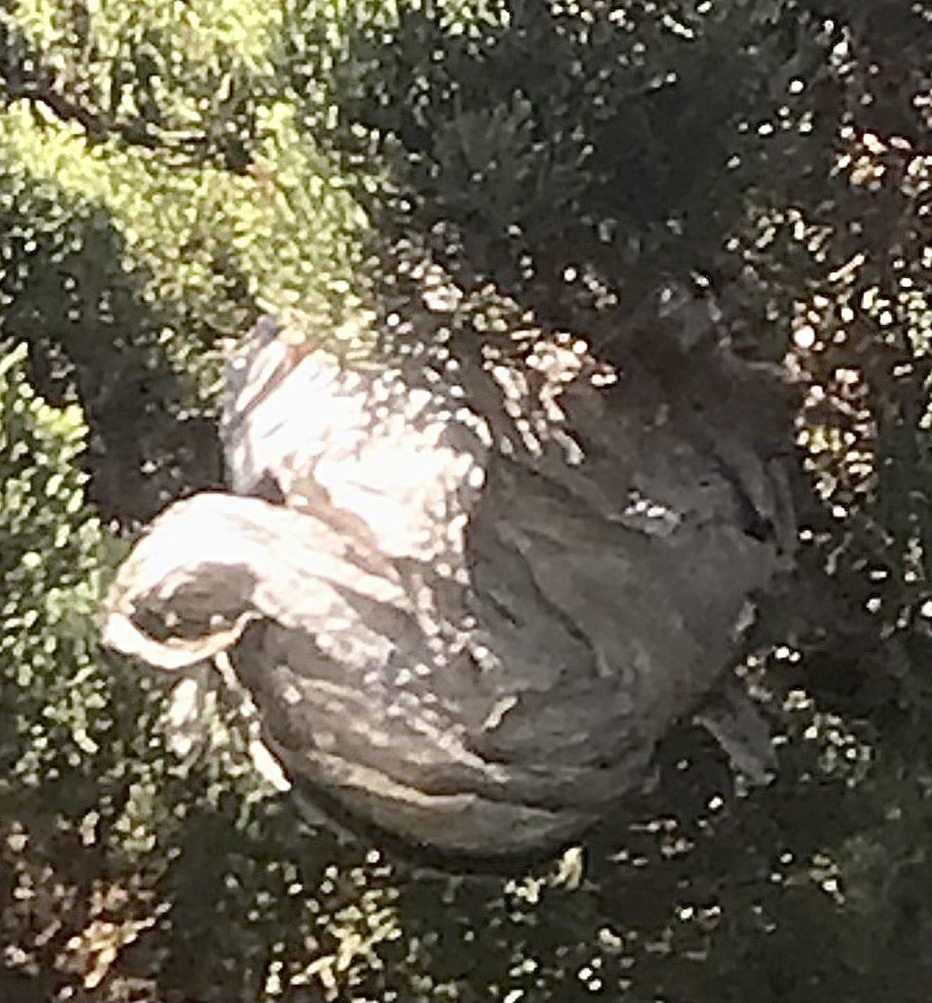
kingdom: Animalia
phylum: Arthropoda
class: Insecta
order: Hymenoptera
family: Vespidae
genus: Dolichovespula
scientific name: Dolichovespula
